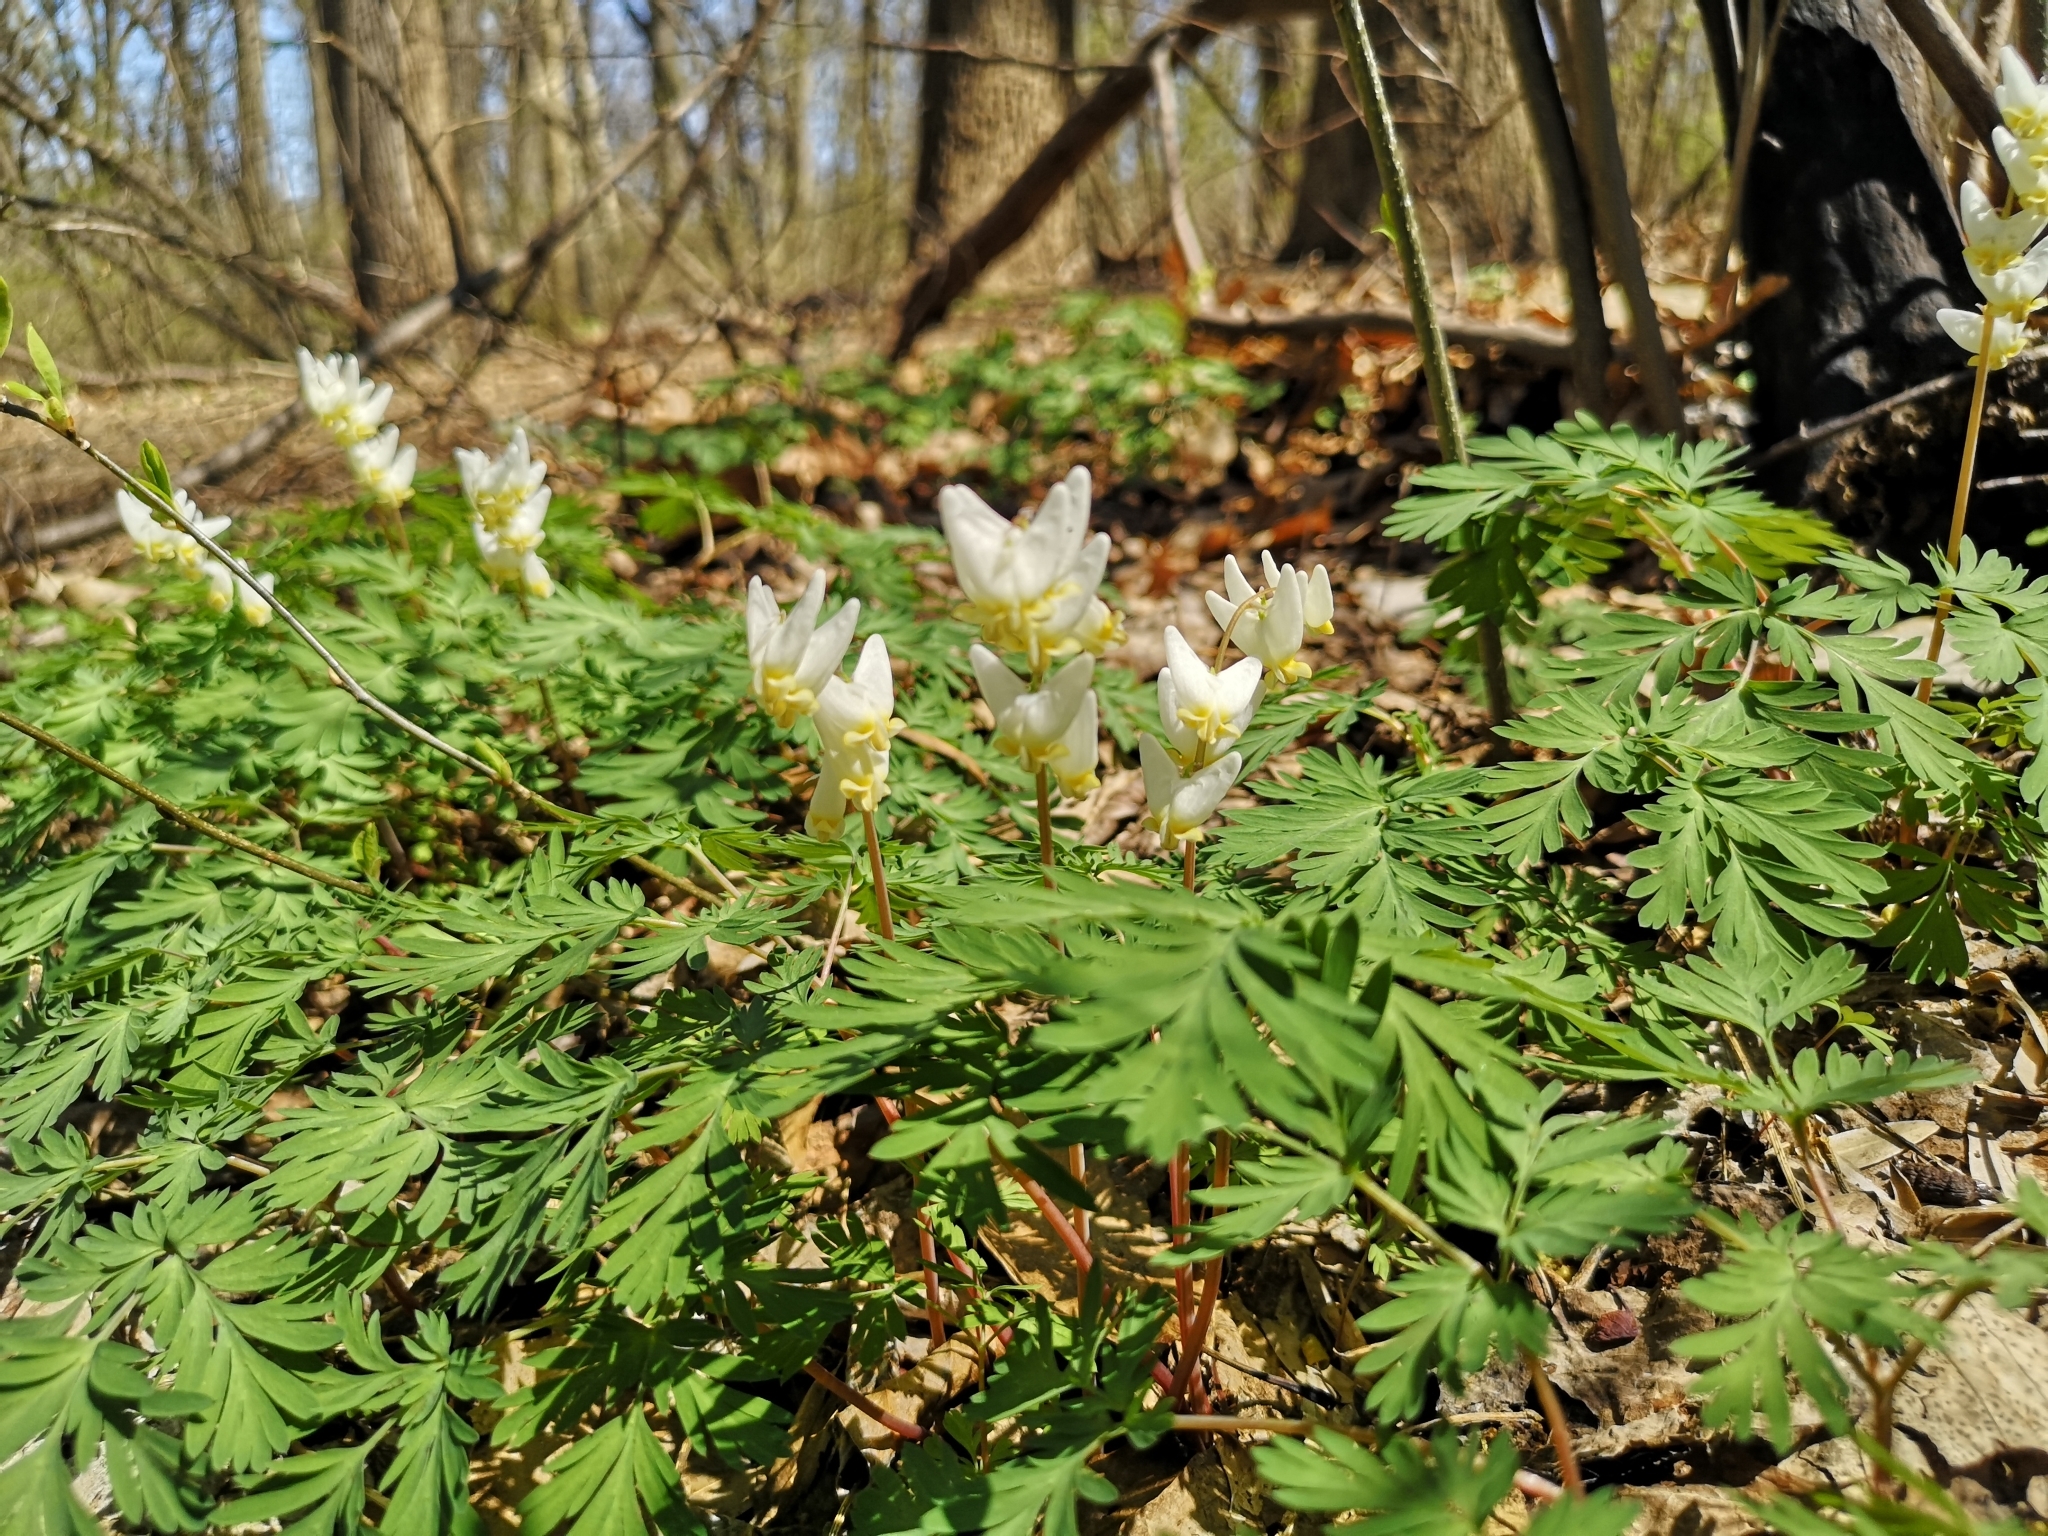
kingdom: Plantae
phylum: Tracheophyta
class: Magnoliopsida
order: Ranunculales
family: Papaveraceae
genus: Dicentra
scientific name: Dicentra cucullaria
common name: Dutchman's breeches
